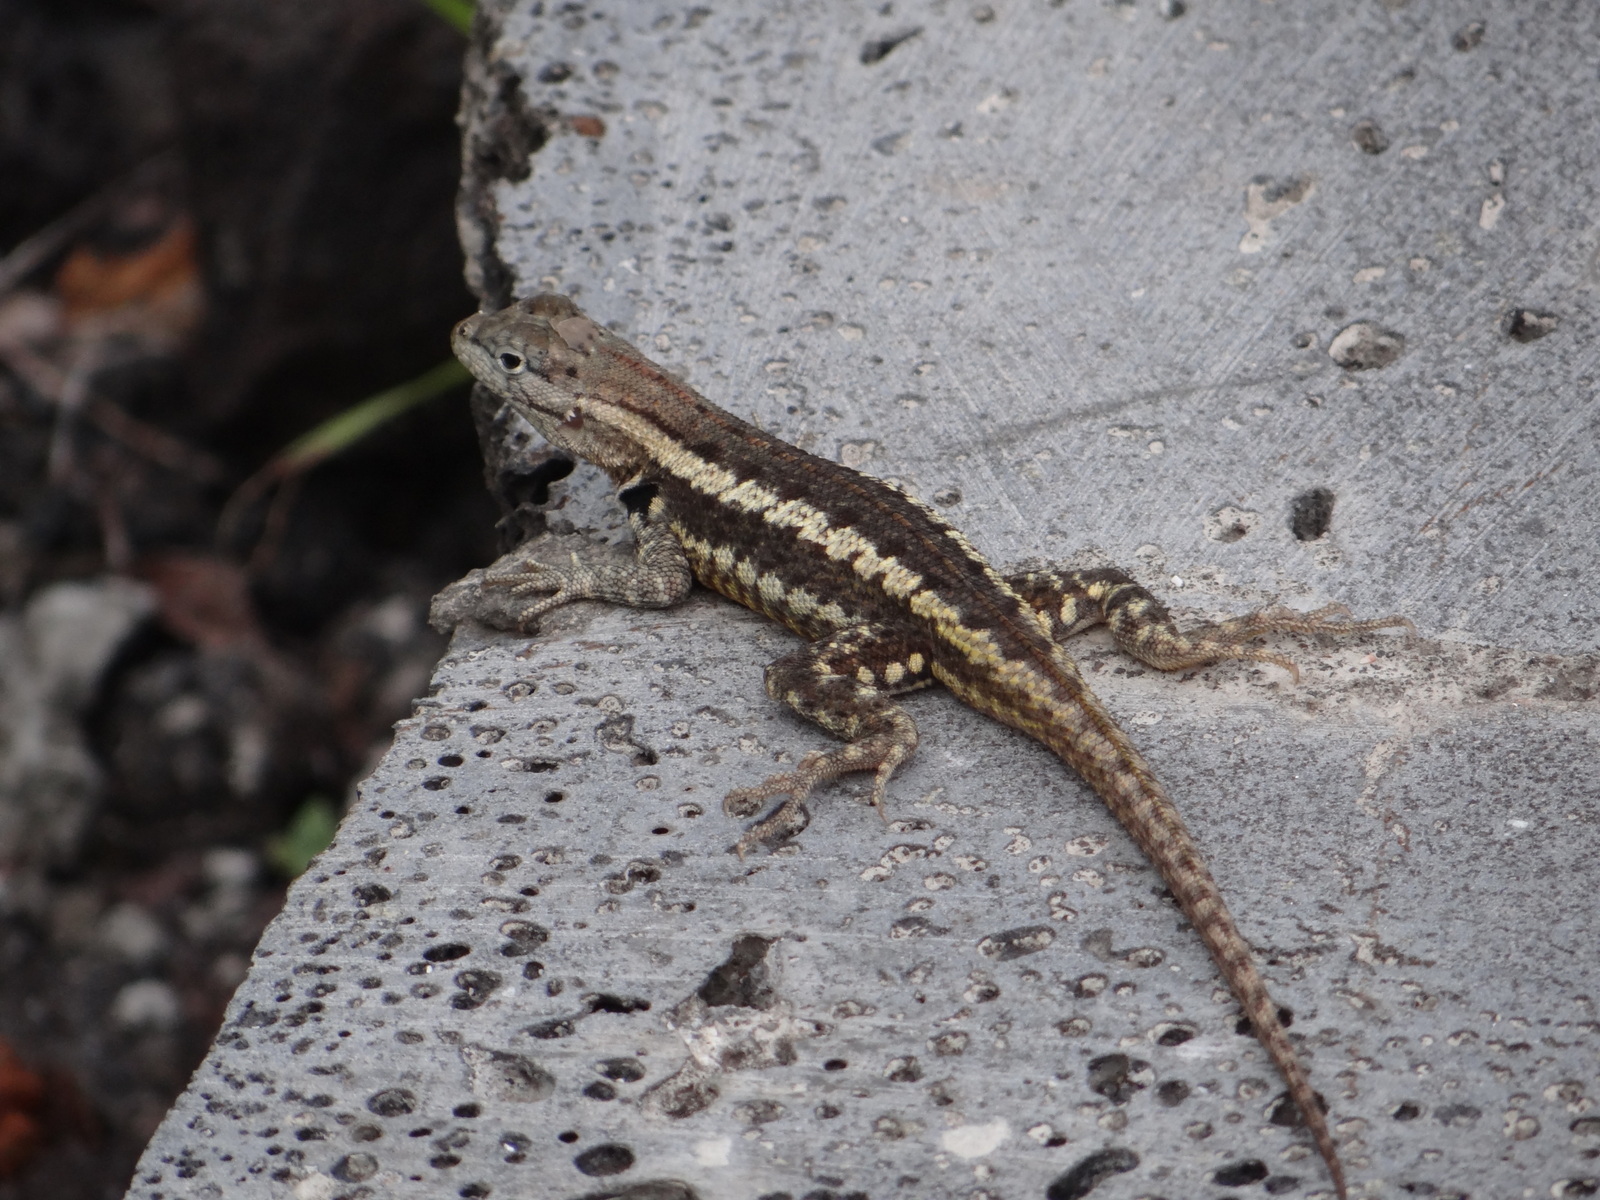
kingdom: Animalia
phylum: Chordata
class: Squamata
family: Tropiduridae
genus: Microlophus
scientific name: Microlophus bivittatus
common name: San cristobal lava lizard
